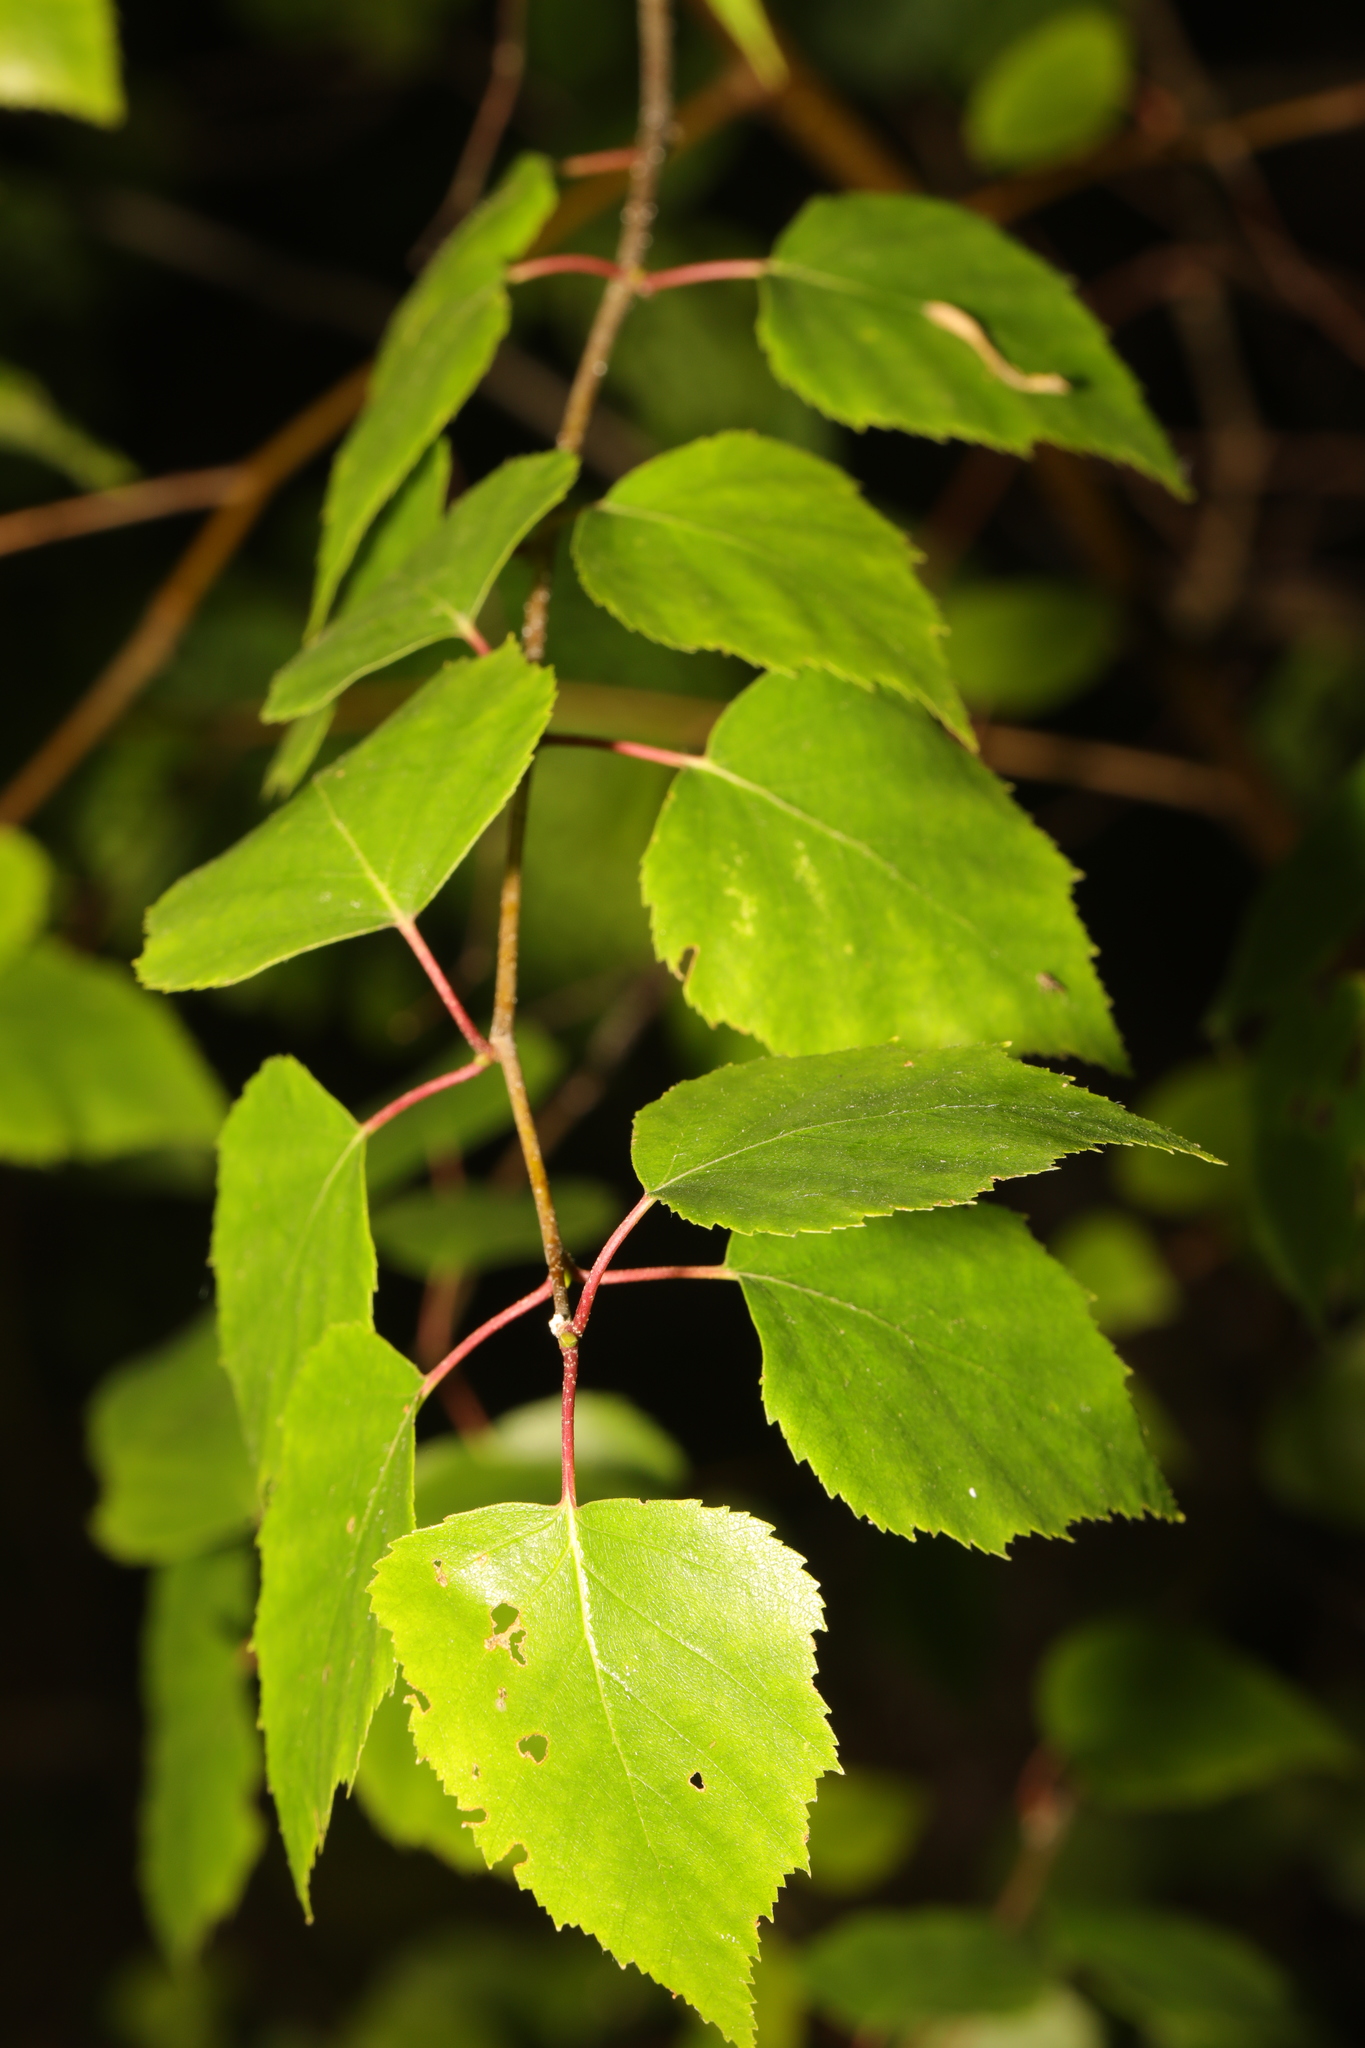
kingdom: Plantae
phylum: Tracheophyta
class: Magnoliopsida
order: Fagales
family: Betulaceae
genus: Betula
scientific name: Betula pendula
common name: Silver birch
